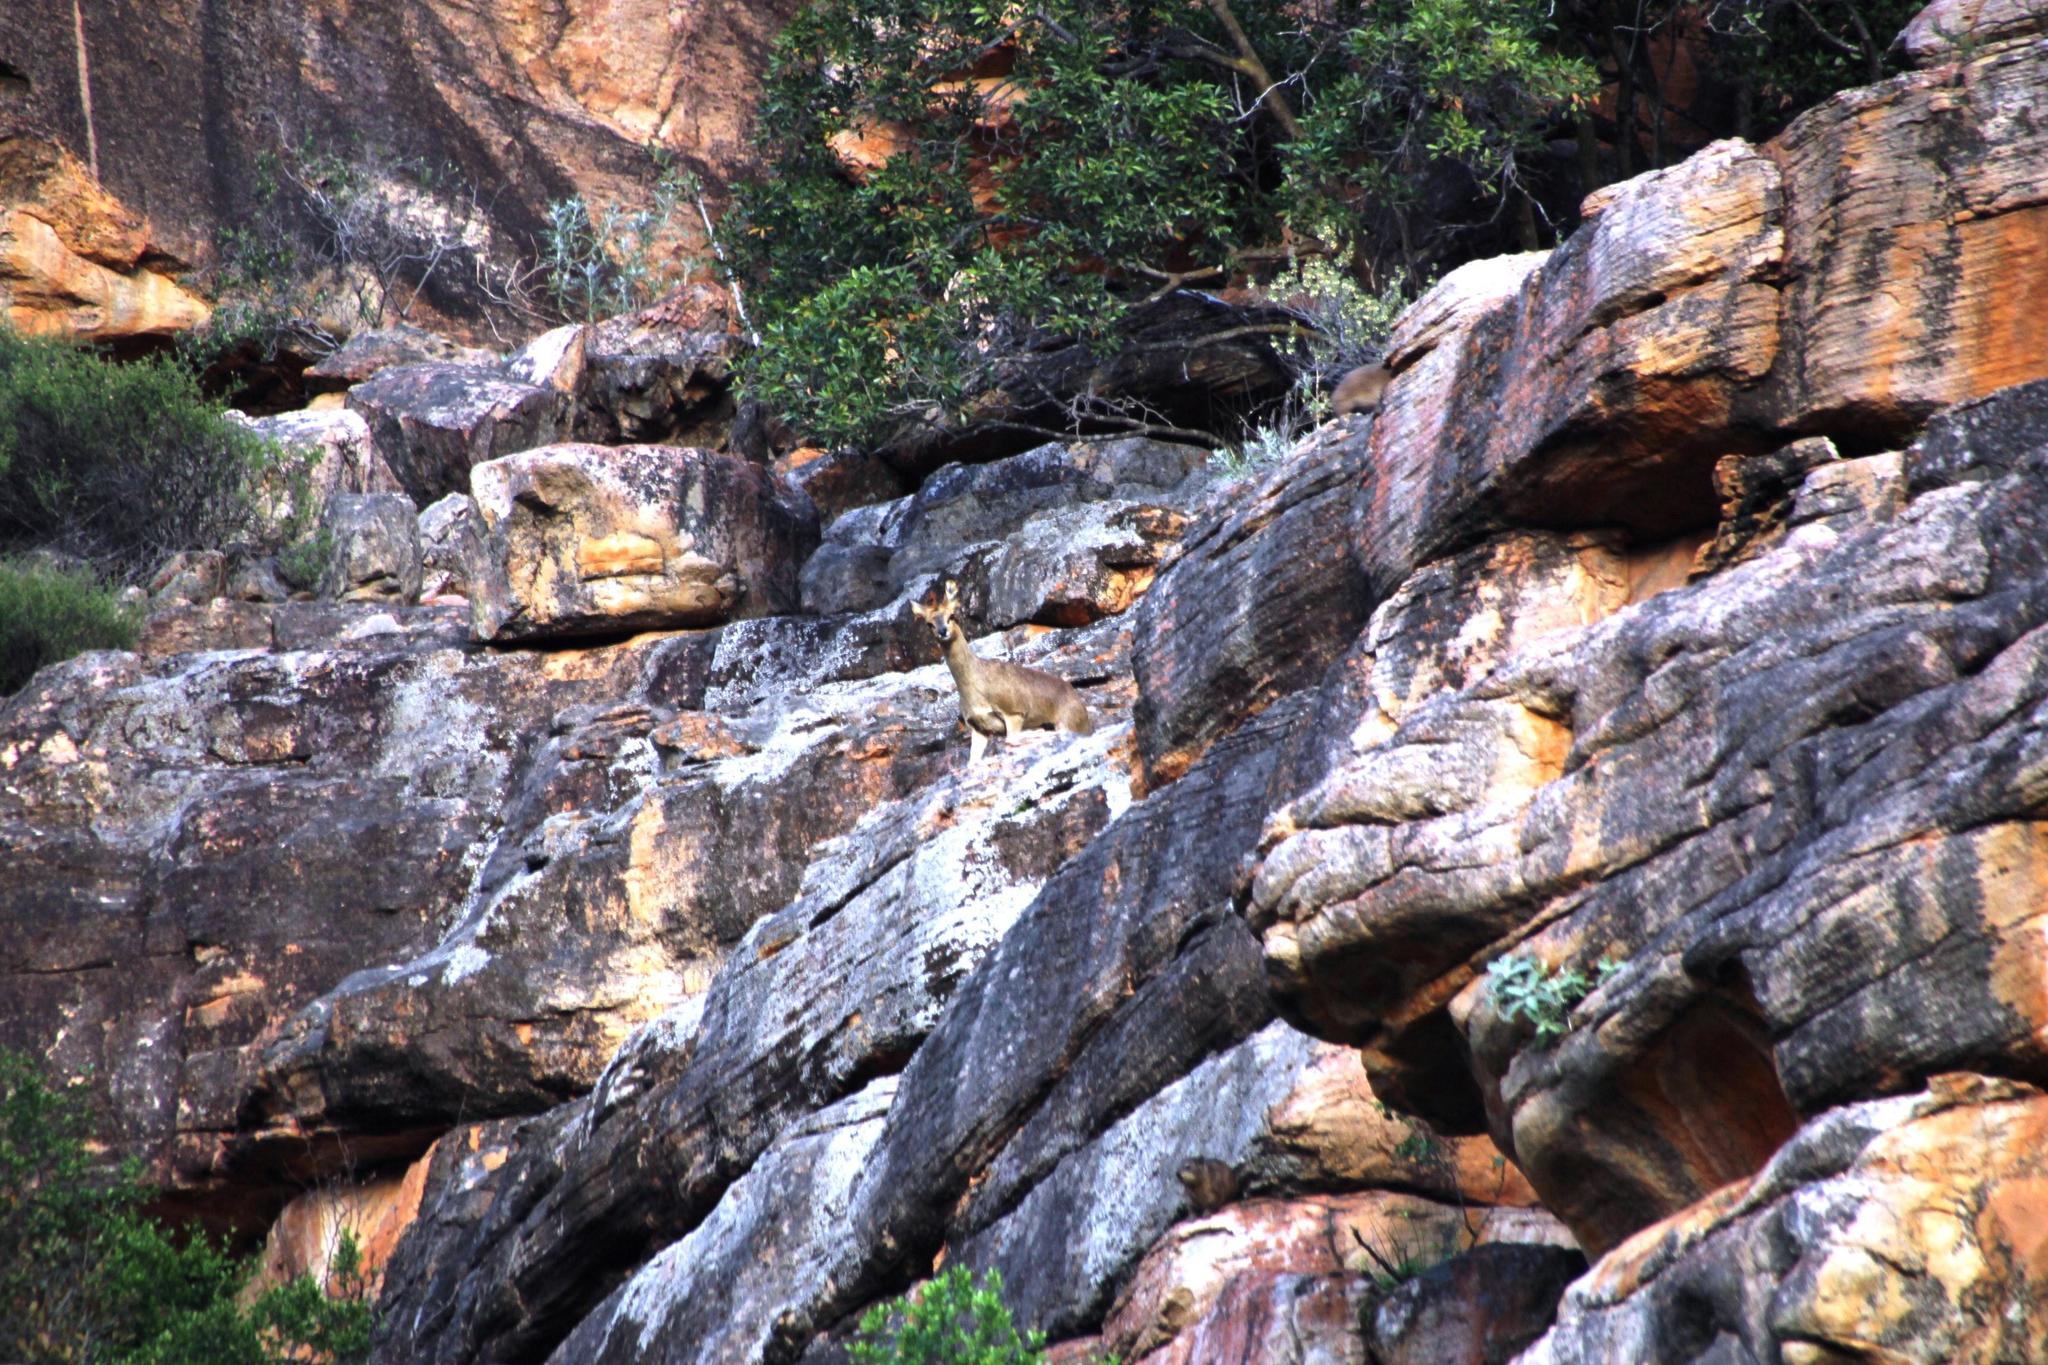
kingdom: Animalia
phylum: Chordata
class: Mammalia
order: Artiodactyla
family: Bovidae
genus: Oreotragus
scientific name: Oreotragus oreotragus
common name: Klipspringer
